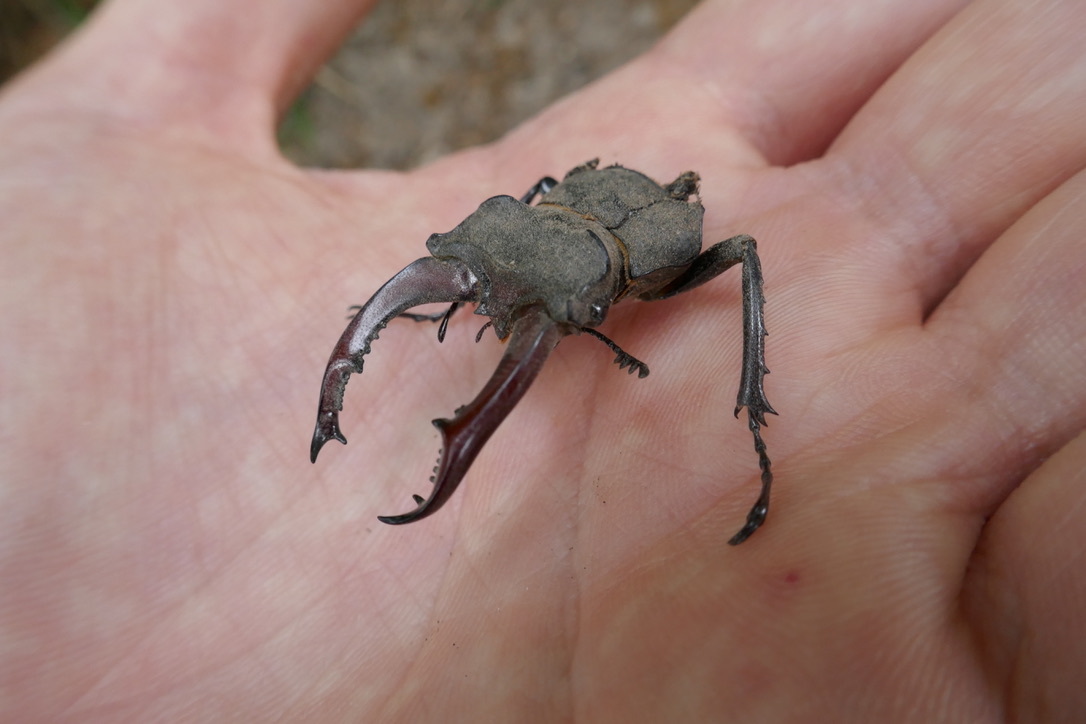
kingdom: Animalia
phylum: Arthropoda
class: Insecta
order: Coleoptera
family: Lucanidae
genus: Lucanus
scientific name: Lucanus cervus
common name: Stag beetle
